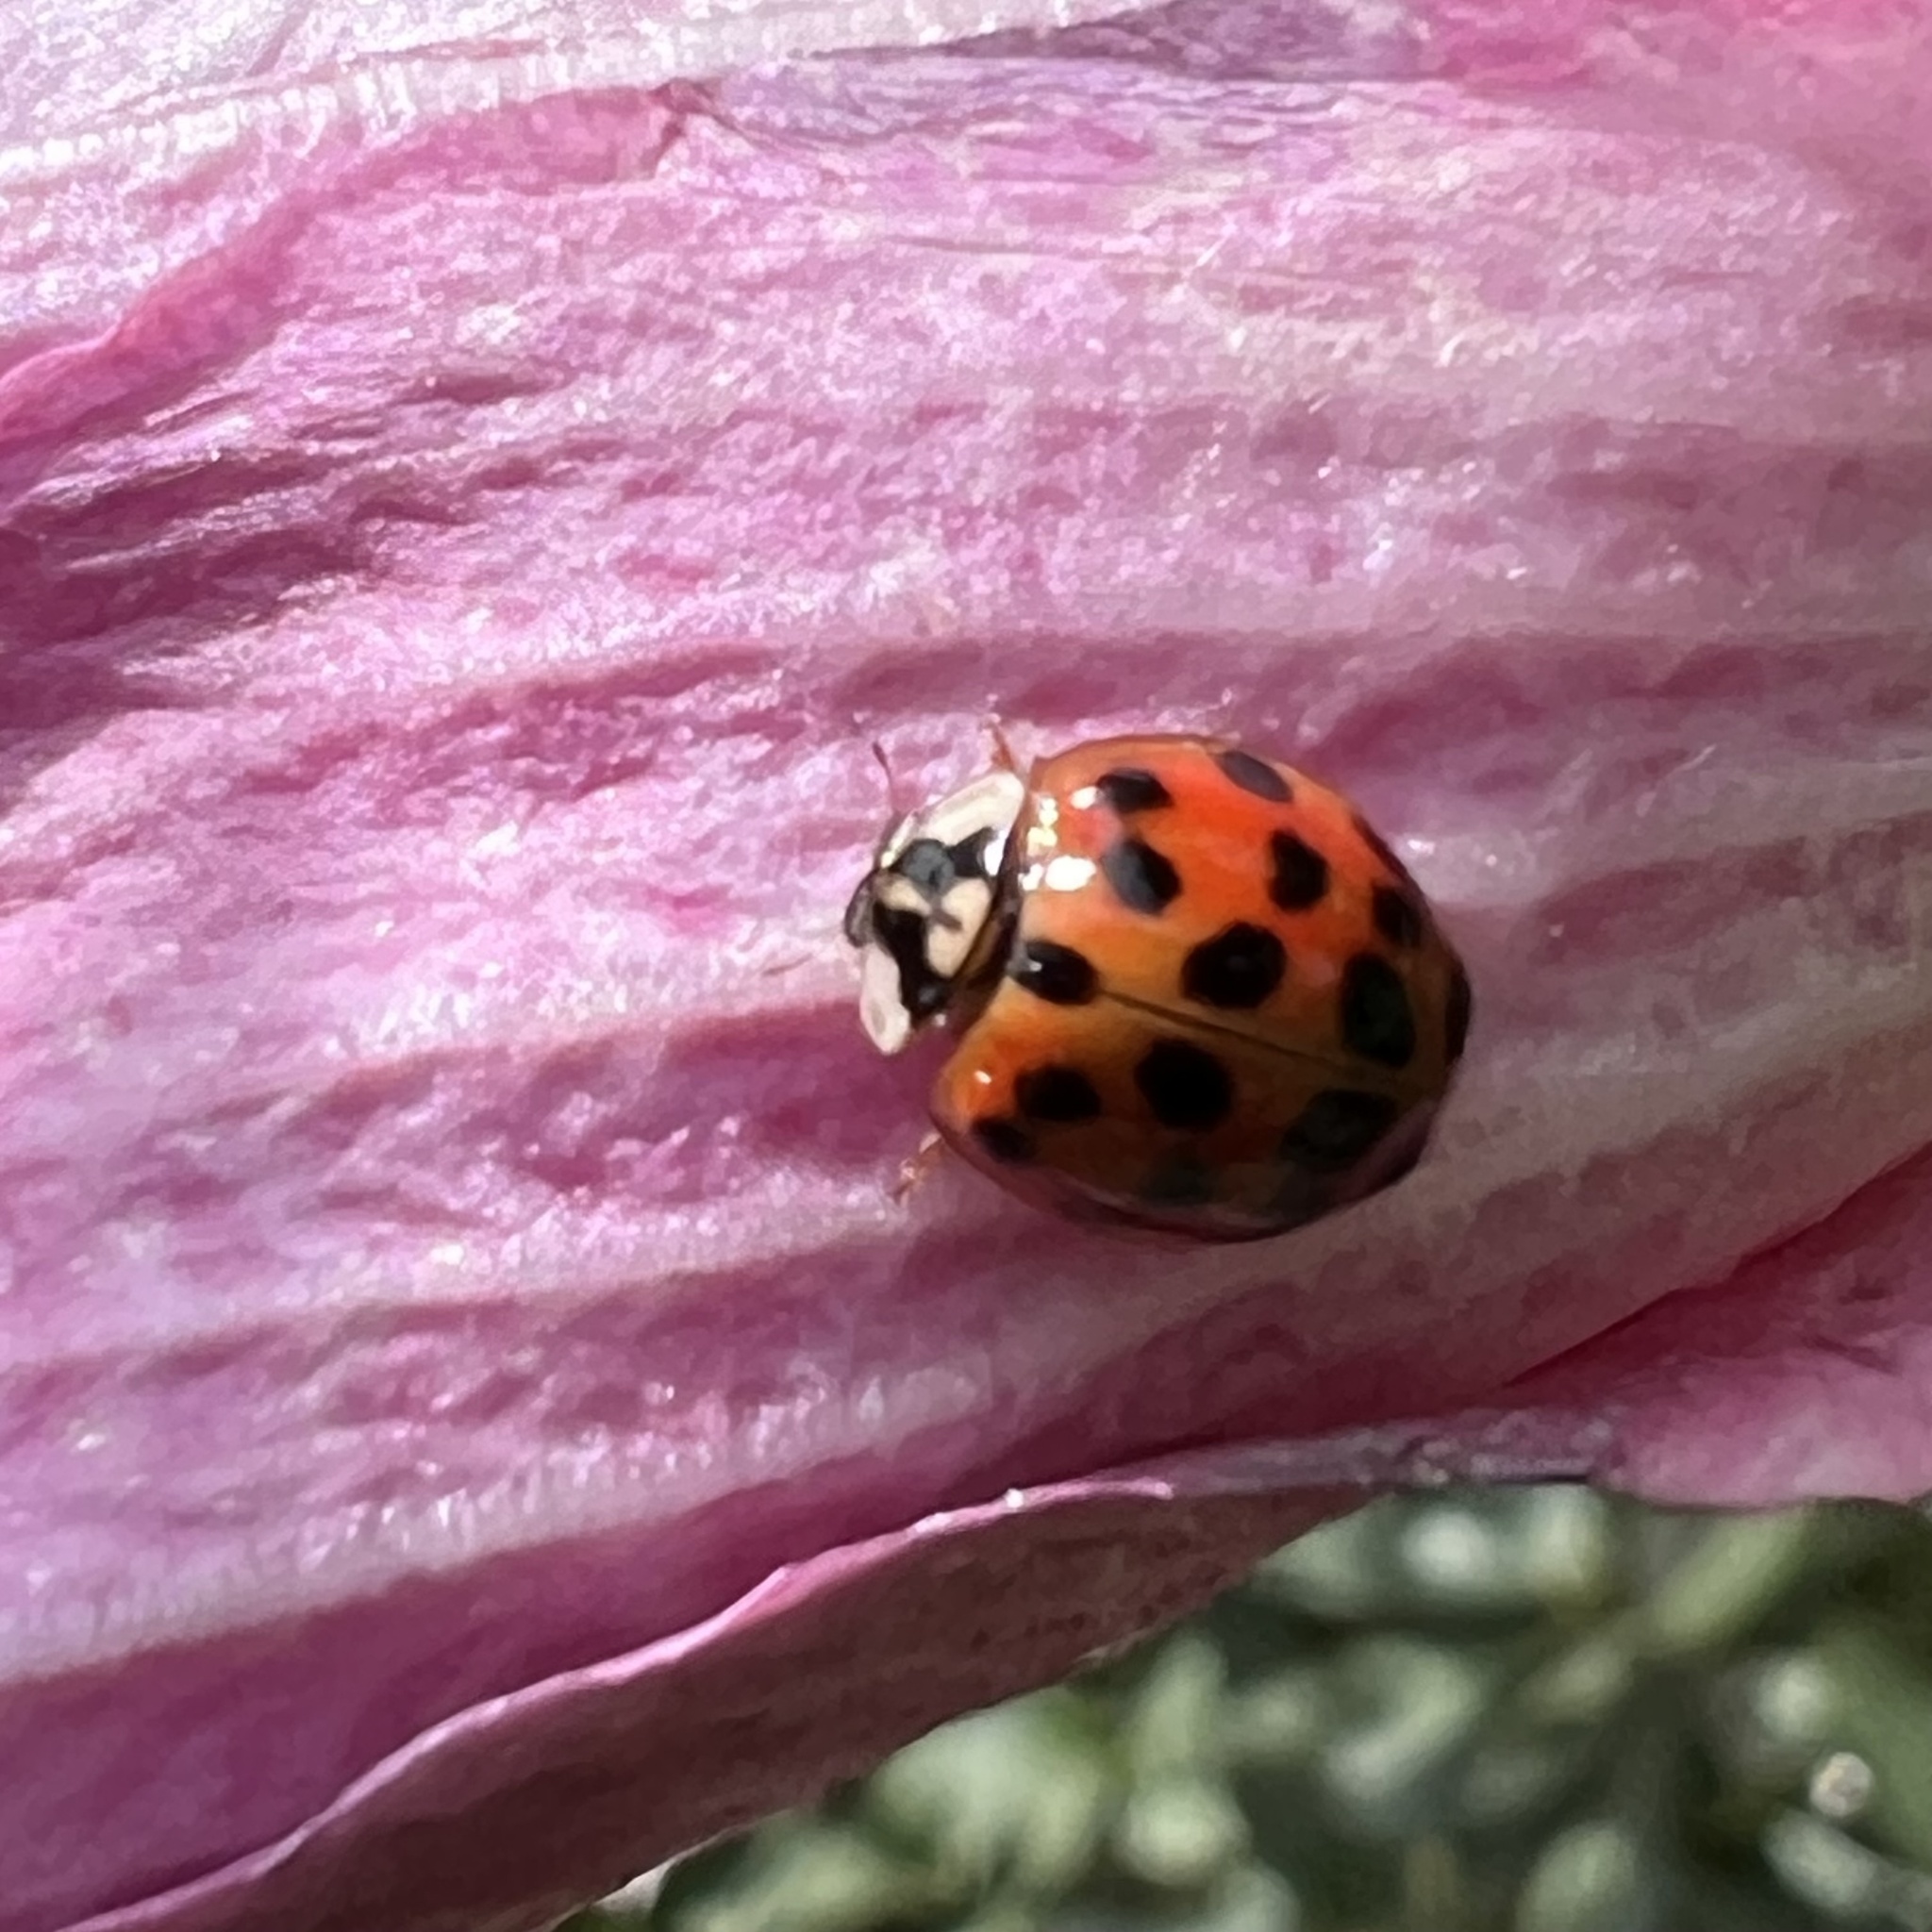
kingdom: Animalia
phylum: Arthropoda
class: Insecta
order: Coleoptera
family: Coccinellidae
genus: Harmonia
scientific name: Harmonia axyridis
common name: Harlequin ladybird
